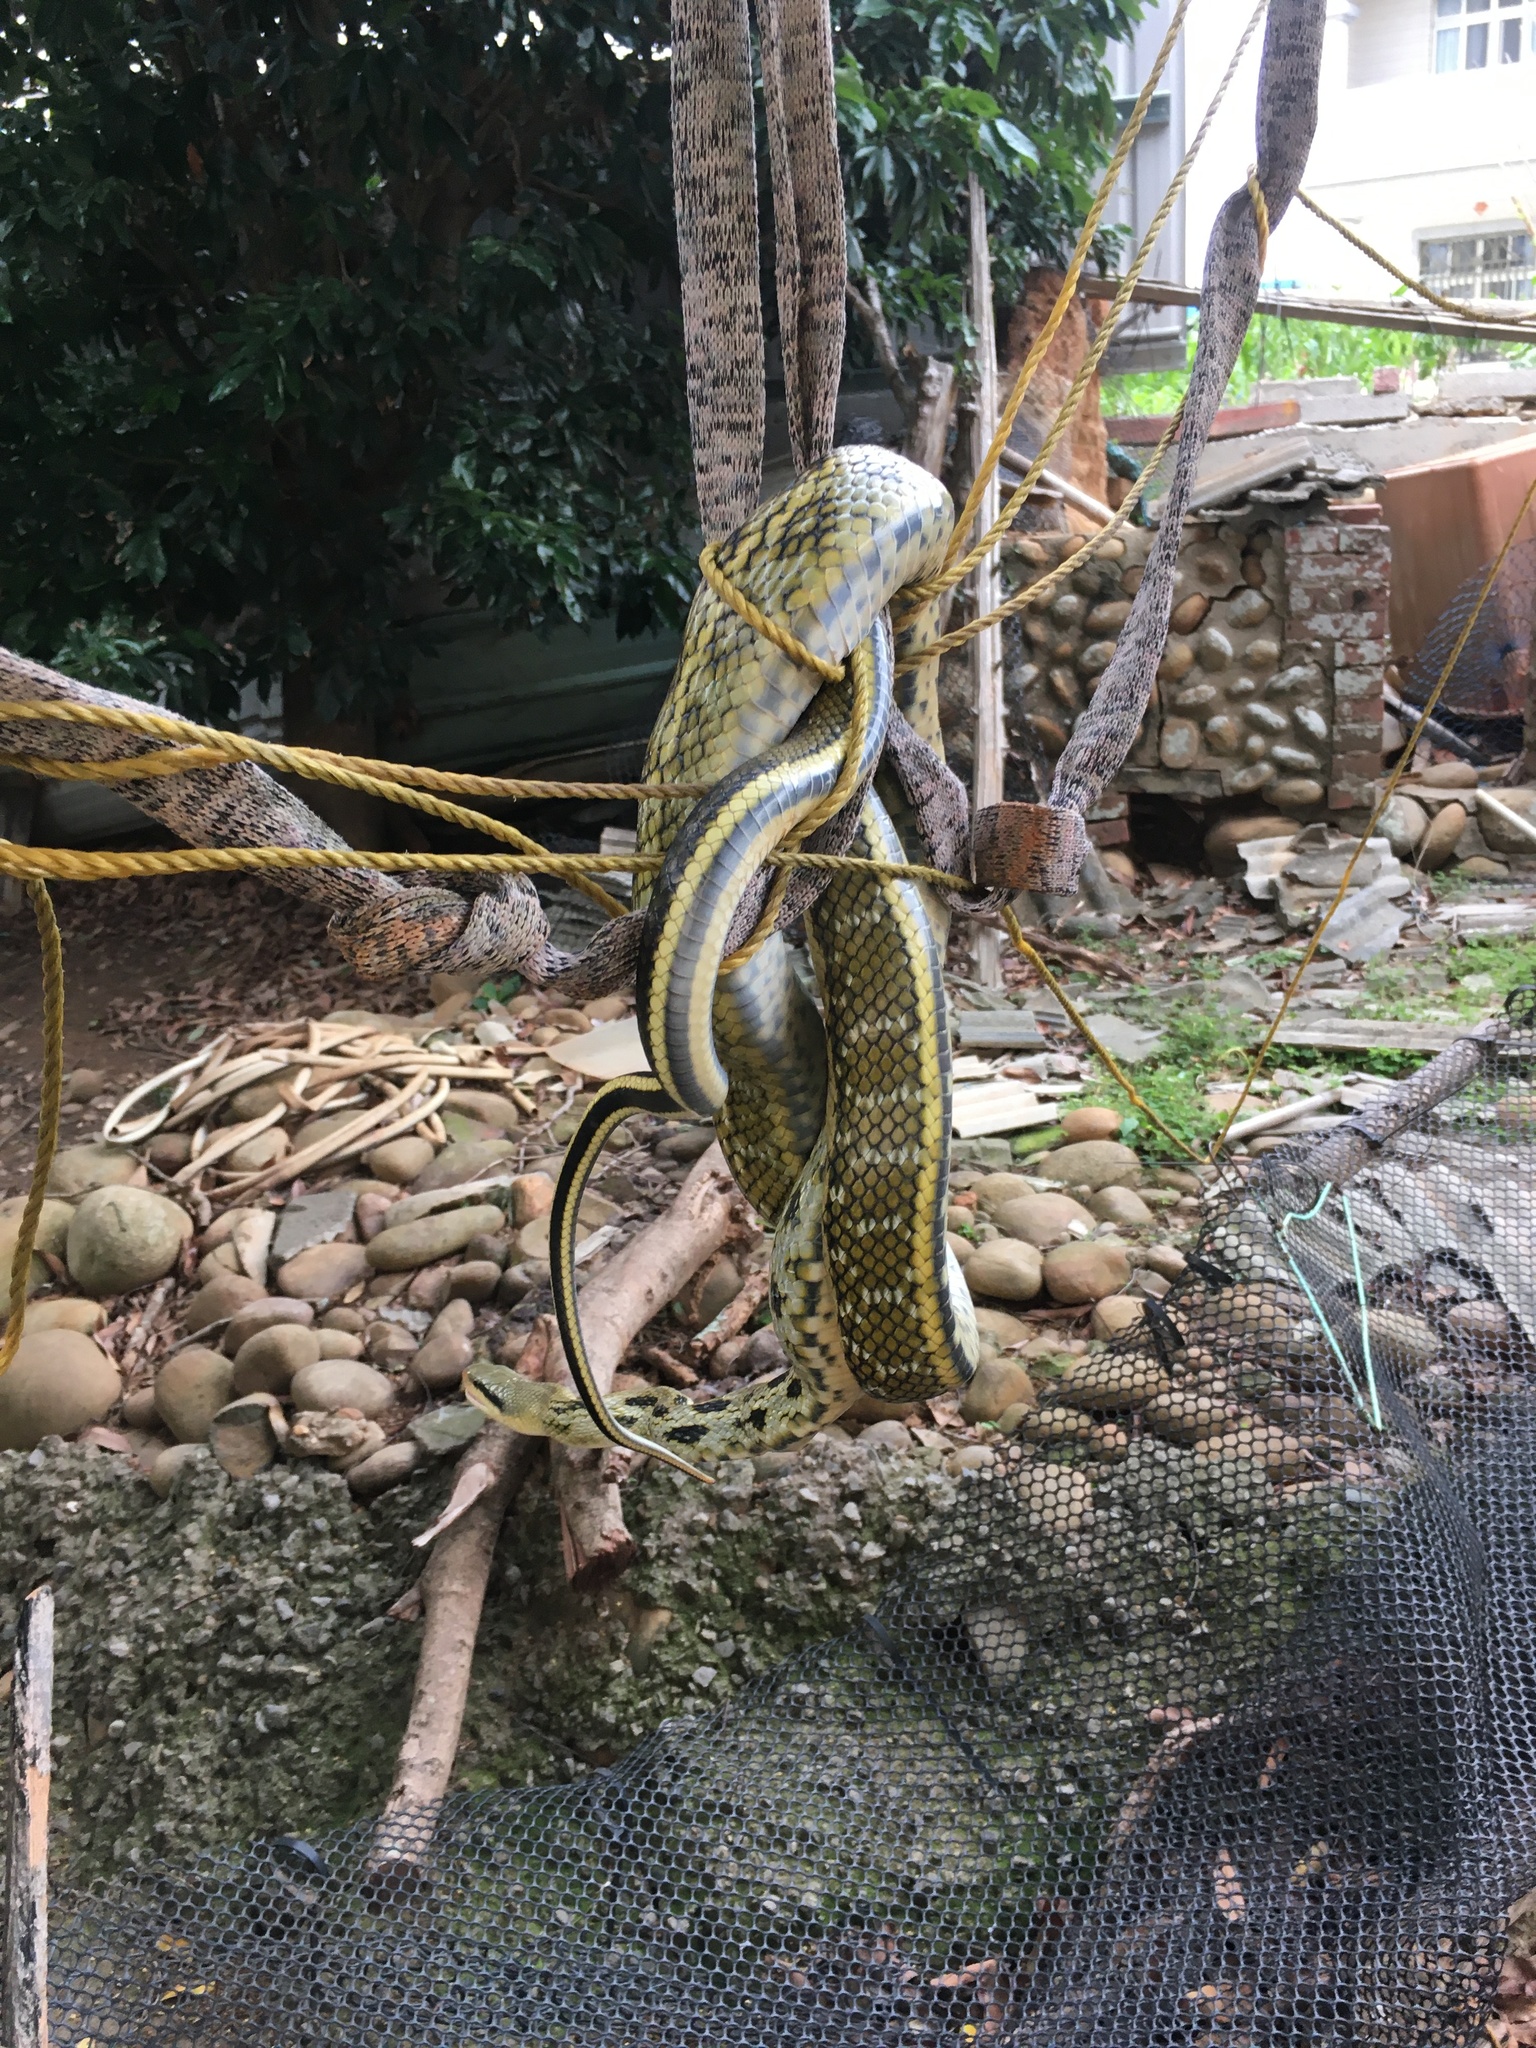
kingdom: Animalia
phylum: Chordata
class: Squamata
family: Colubridae
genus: Elaphe
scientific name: Elaphe taeniura
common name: Beauty snake
